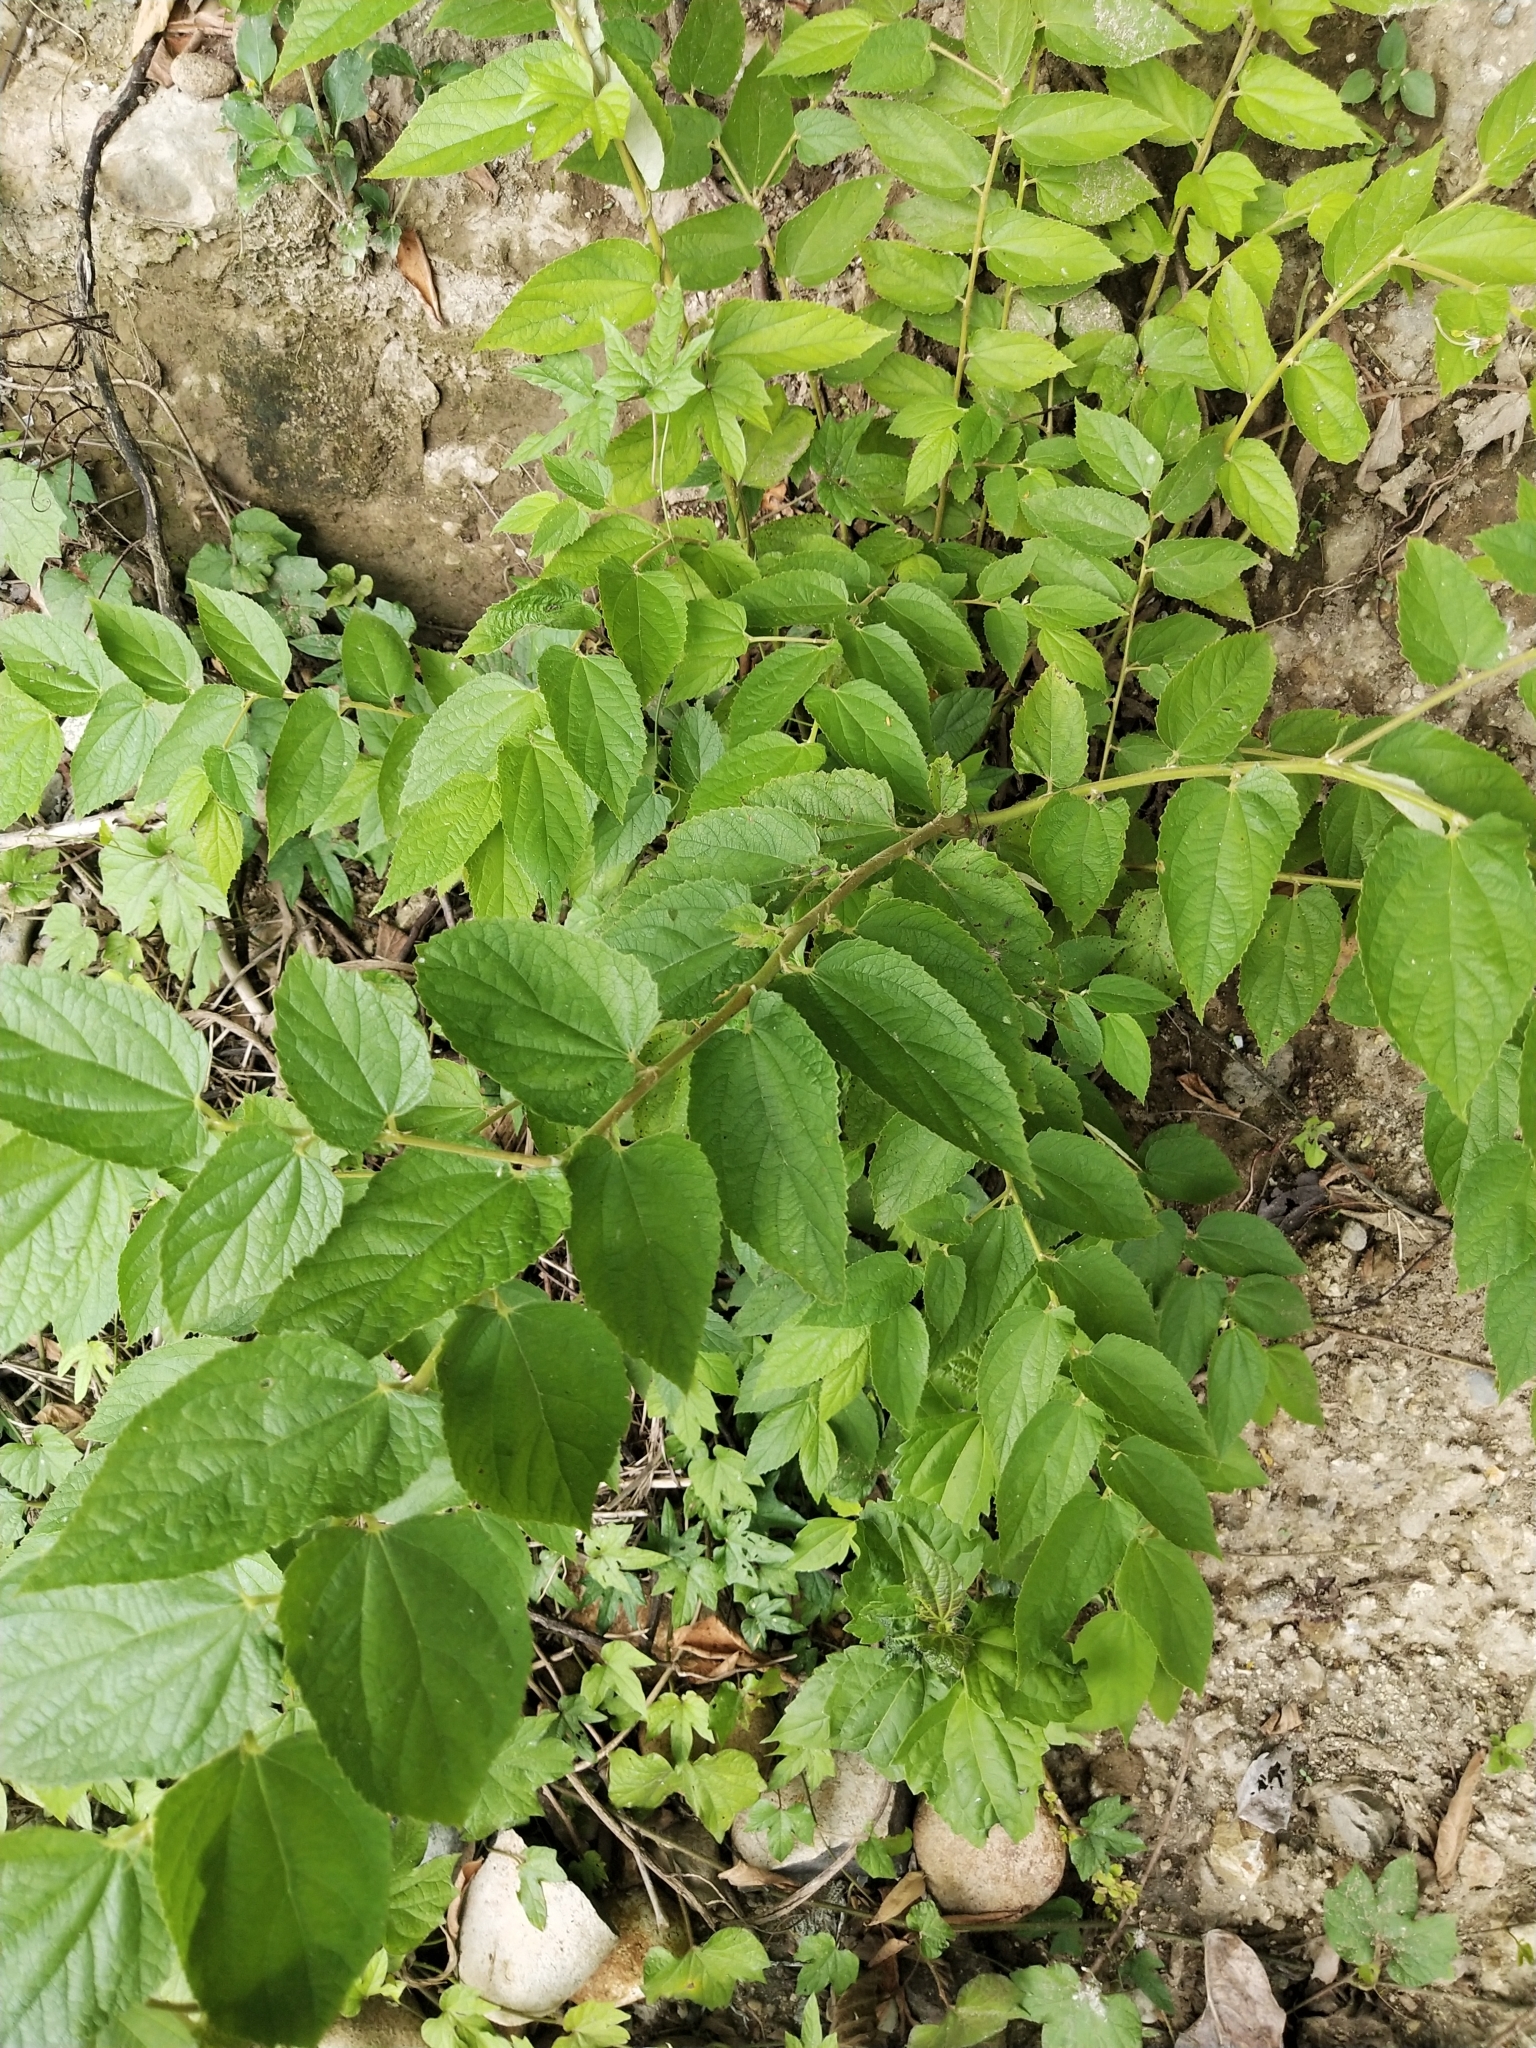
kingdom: Plantae
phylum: Tracheophyta
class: Magnoliopsida
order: Malvales
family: Muntingiaceae
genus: Muntingia
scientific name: Muntingia calabura
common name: Strawberrytree
